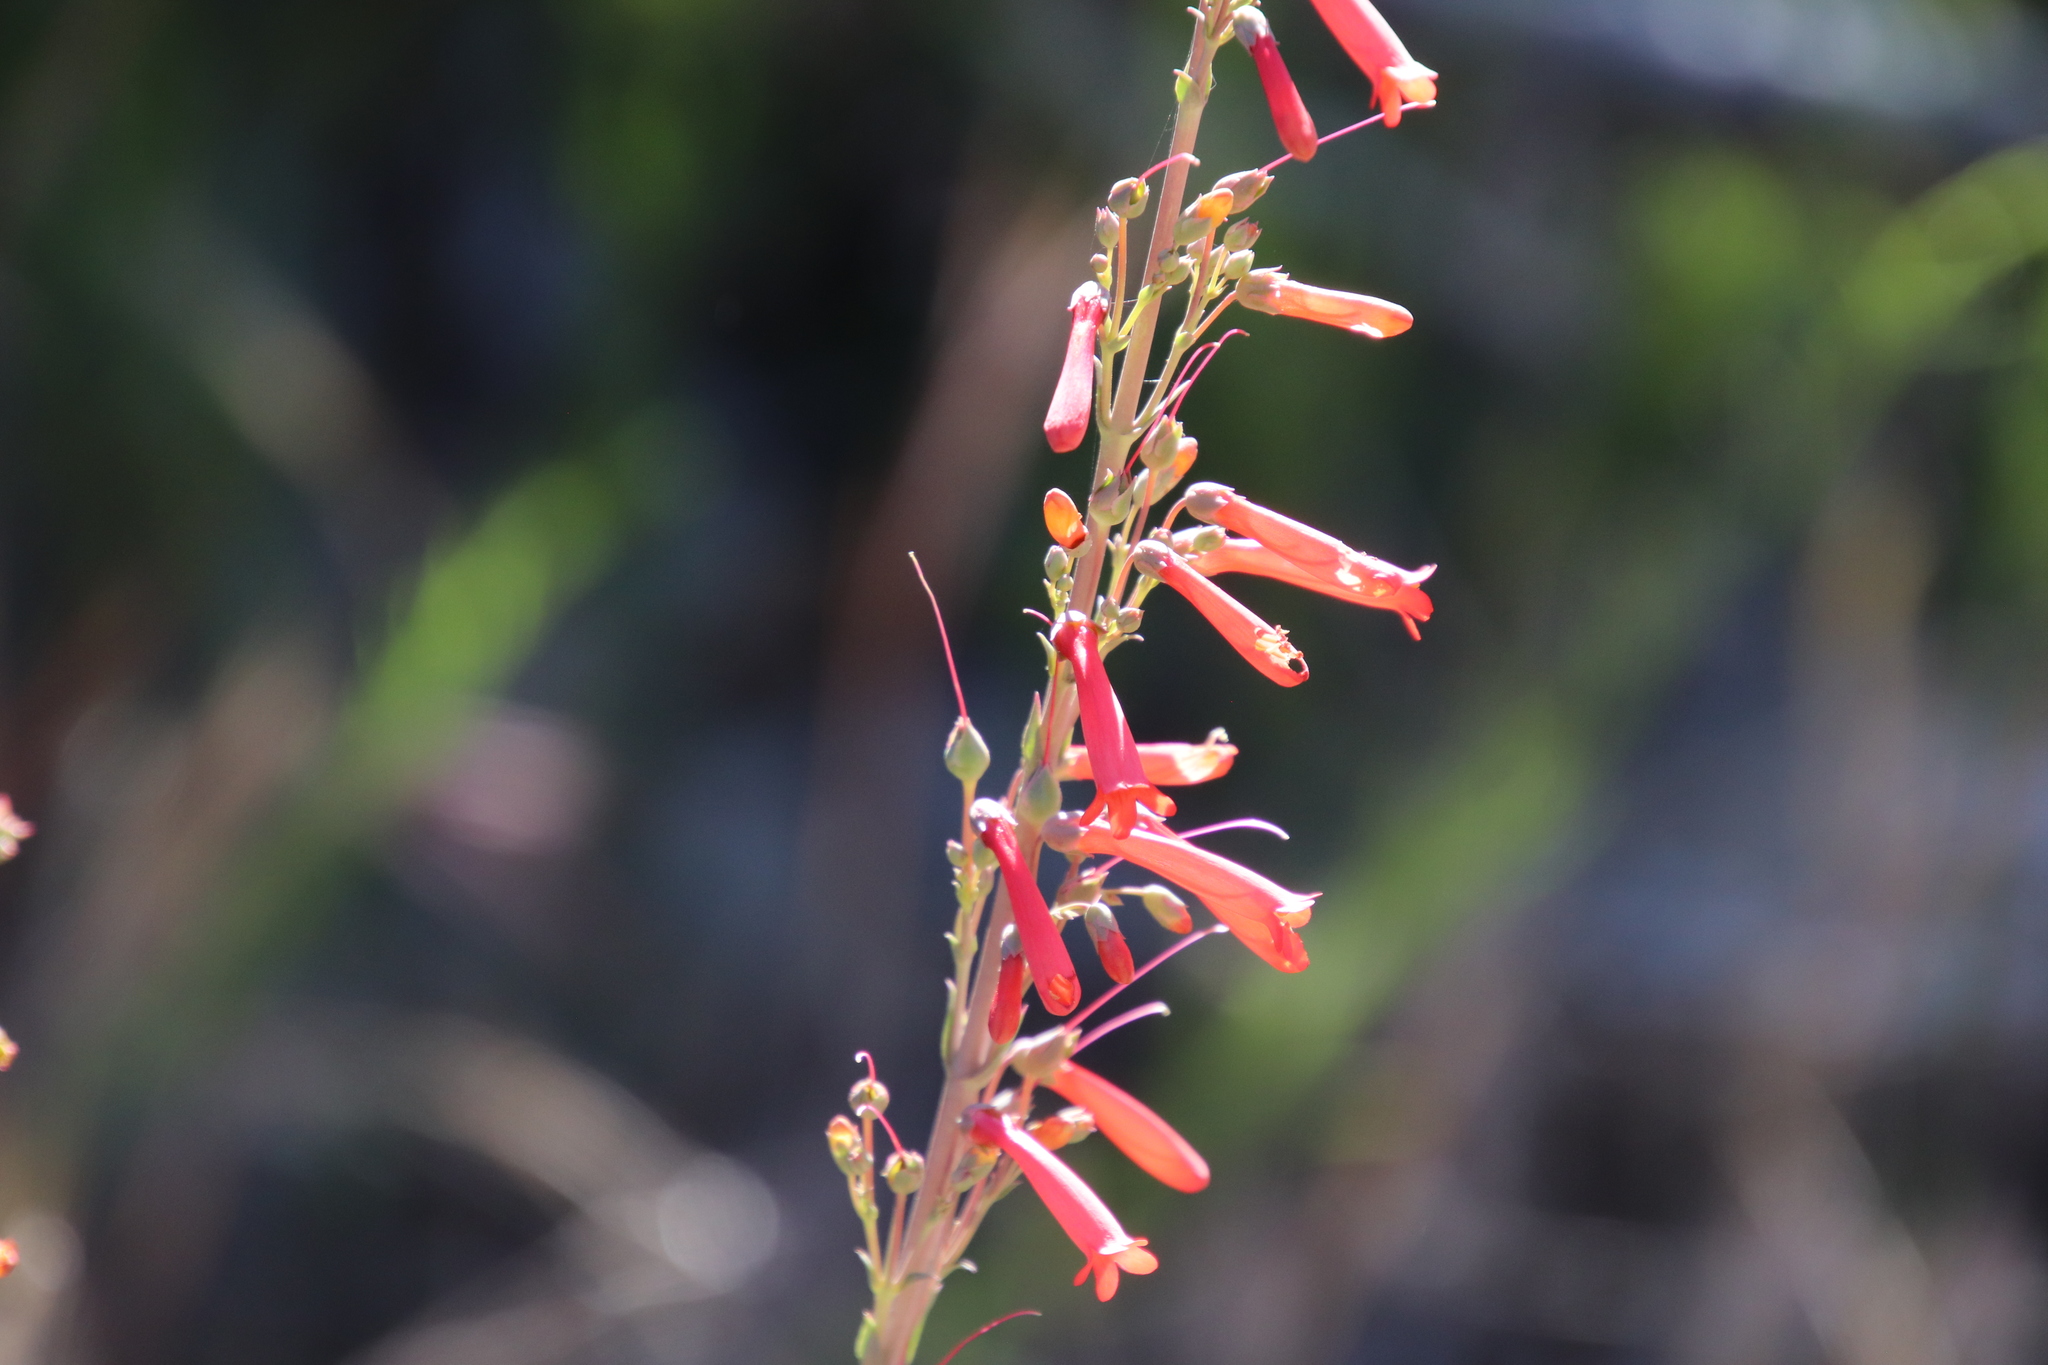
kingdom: Plantae
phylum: Tracheophyta
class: Magnoliopsida
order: Lamiales
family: Plantaginaceae
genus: Penstemon
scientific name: Penstemon centranthifolius
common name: Scarlet bugler
